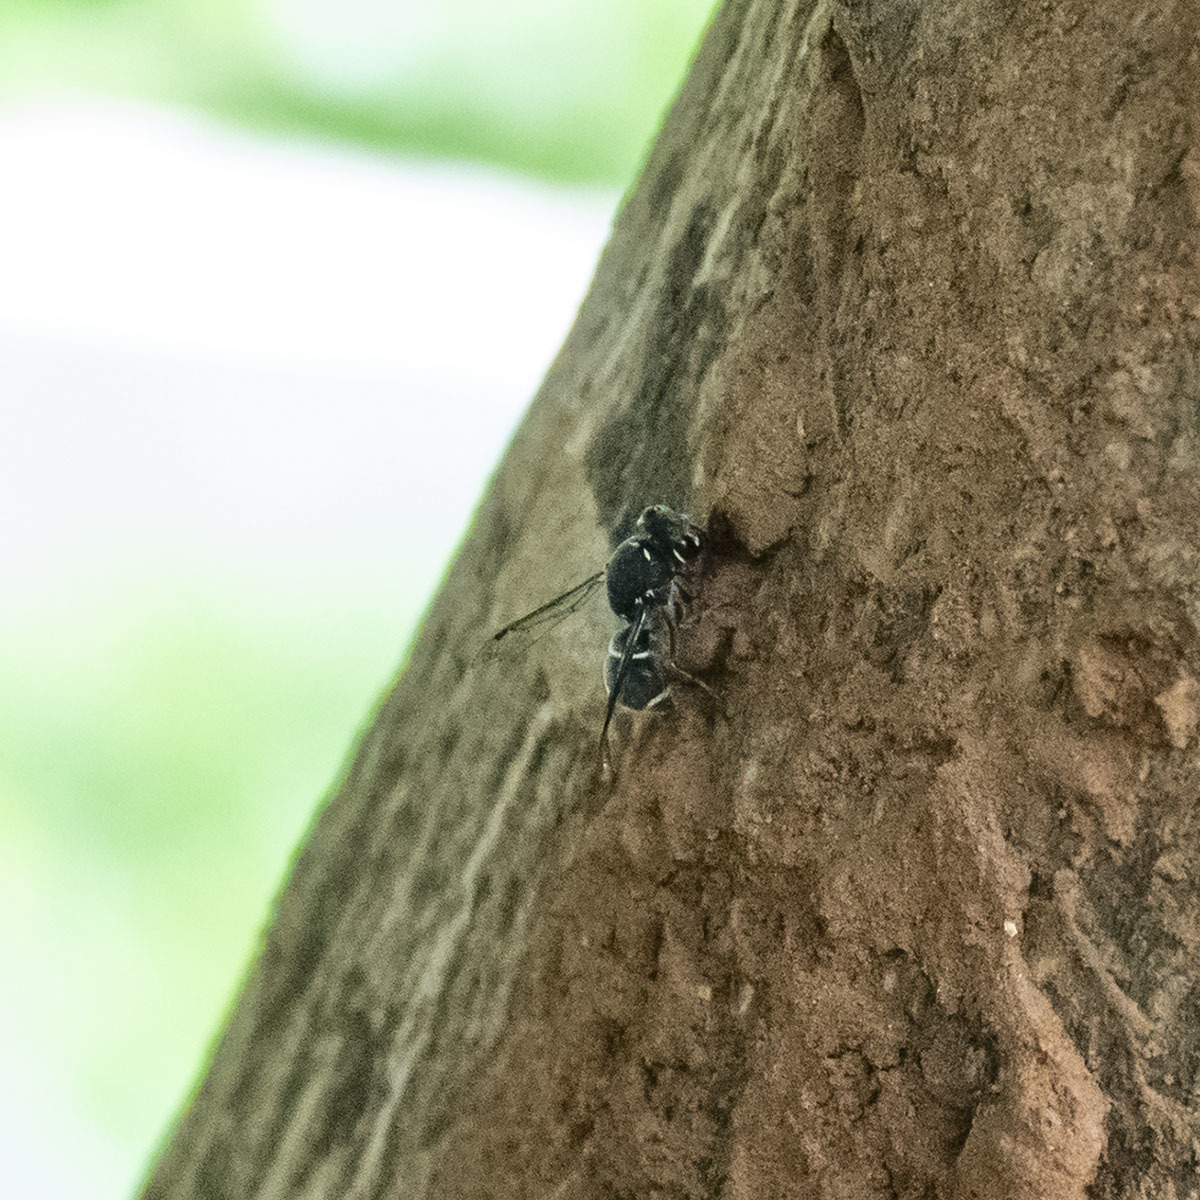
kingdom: Animalia
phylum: Arthropoda
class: Insecta
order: Hymenoptera
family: Eumenidae
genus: Subancistrocerus
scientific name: Subancistrocerus sichelii
